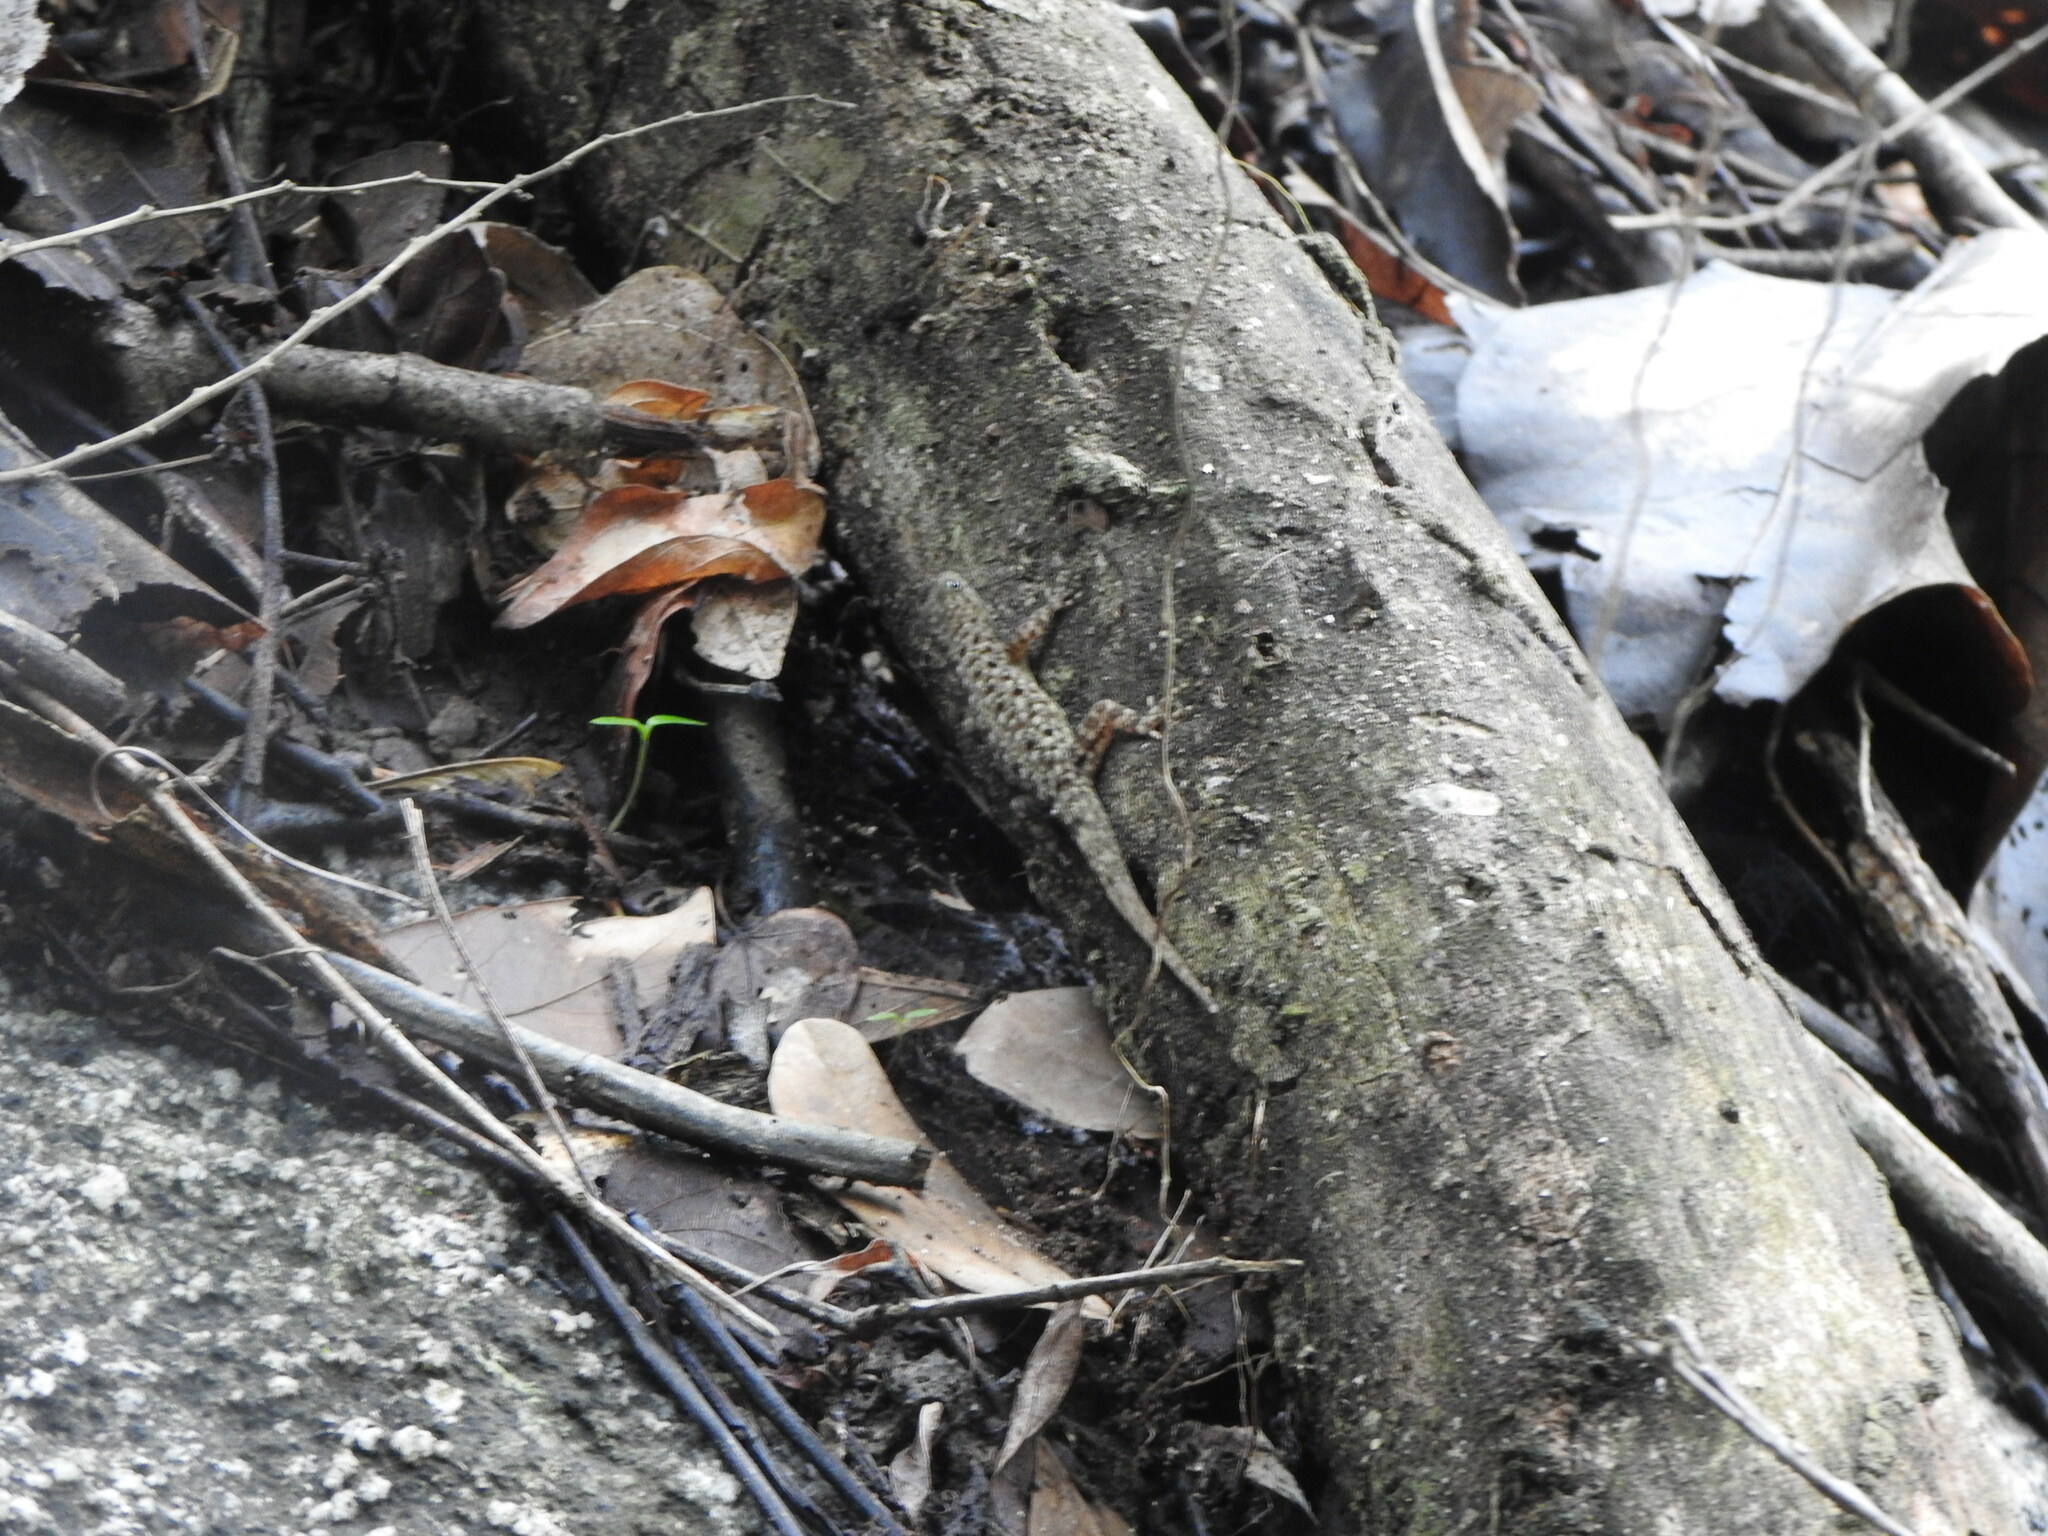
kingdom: Animalia
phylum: Chordata
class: Squamata
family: Sphaerodactylidae
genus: Gonatodes
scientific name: Gonatodes albogularis
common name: Yellow-headed gecko
